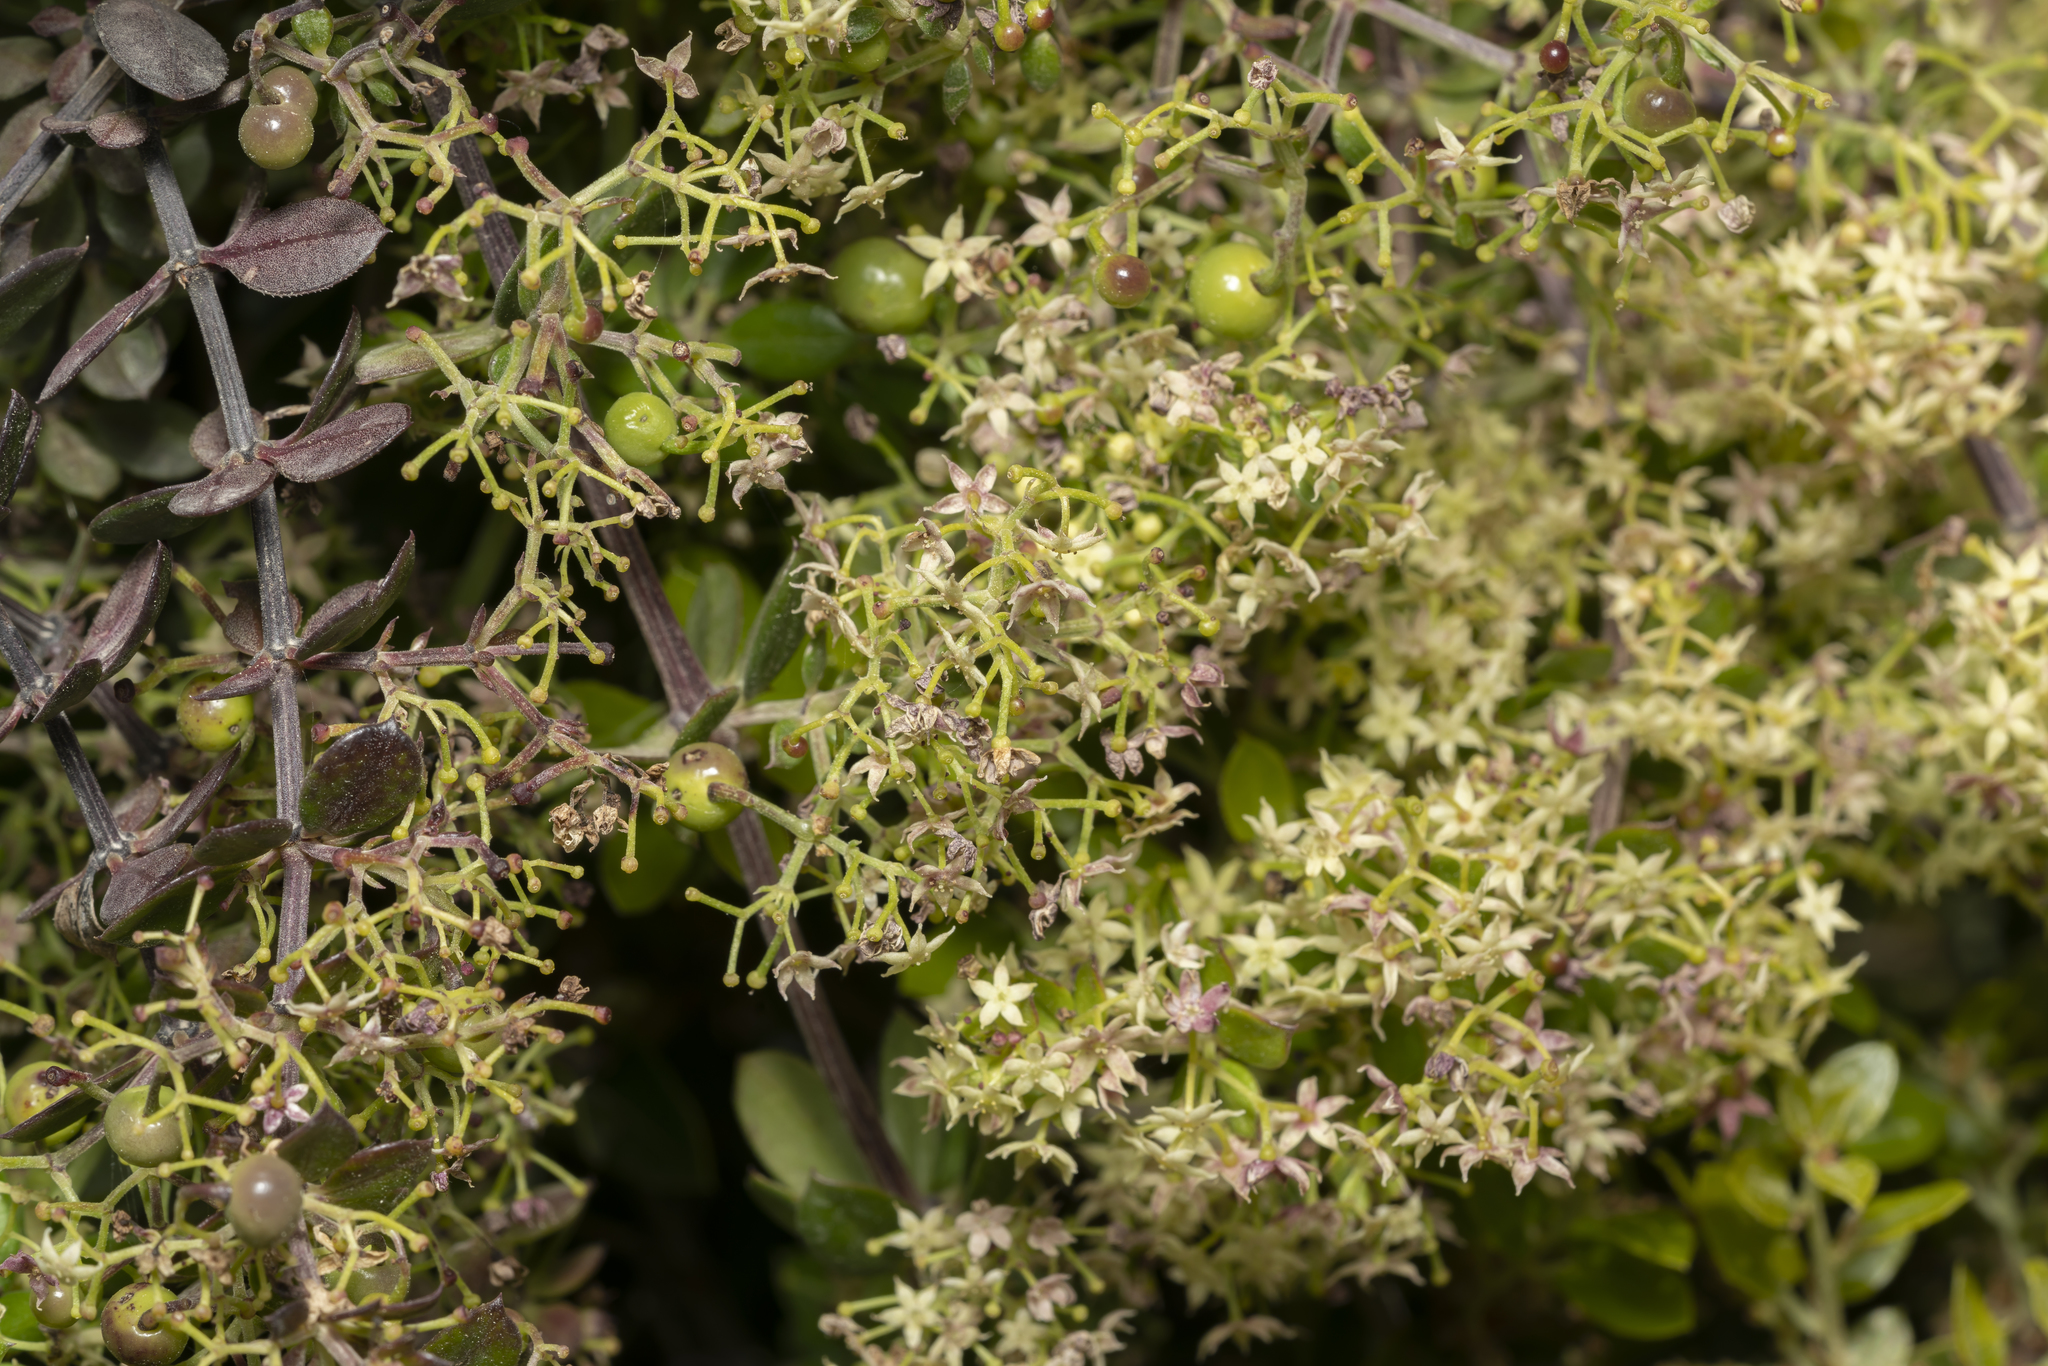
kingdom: Plantae
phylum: Tracheophyta
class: Magnoliopsida
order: Gentianales
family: Rubiaceae
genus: Rubia
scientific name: Rubia tenuifolia
